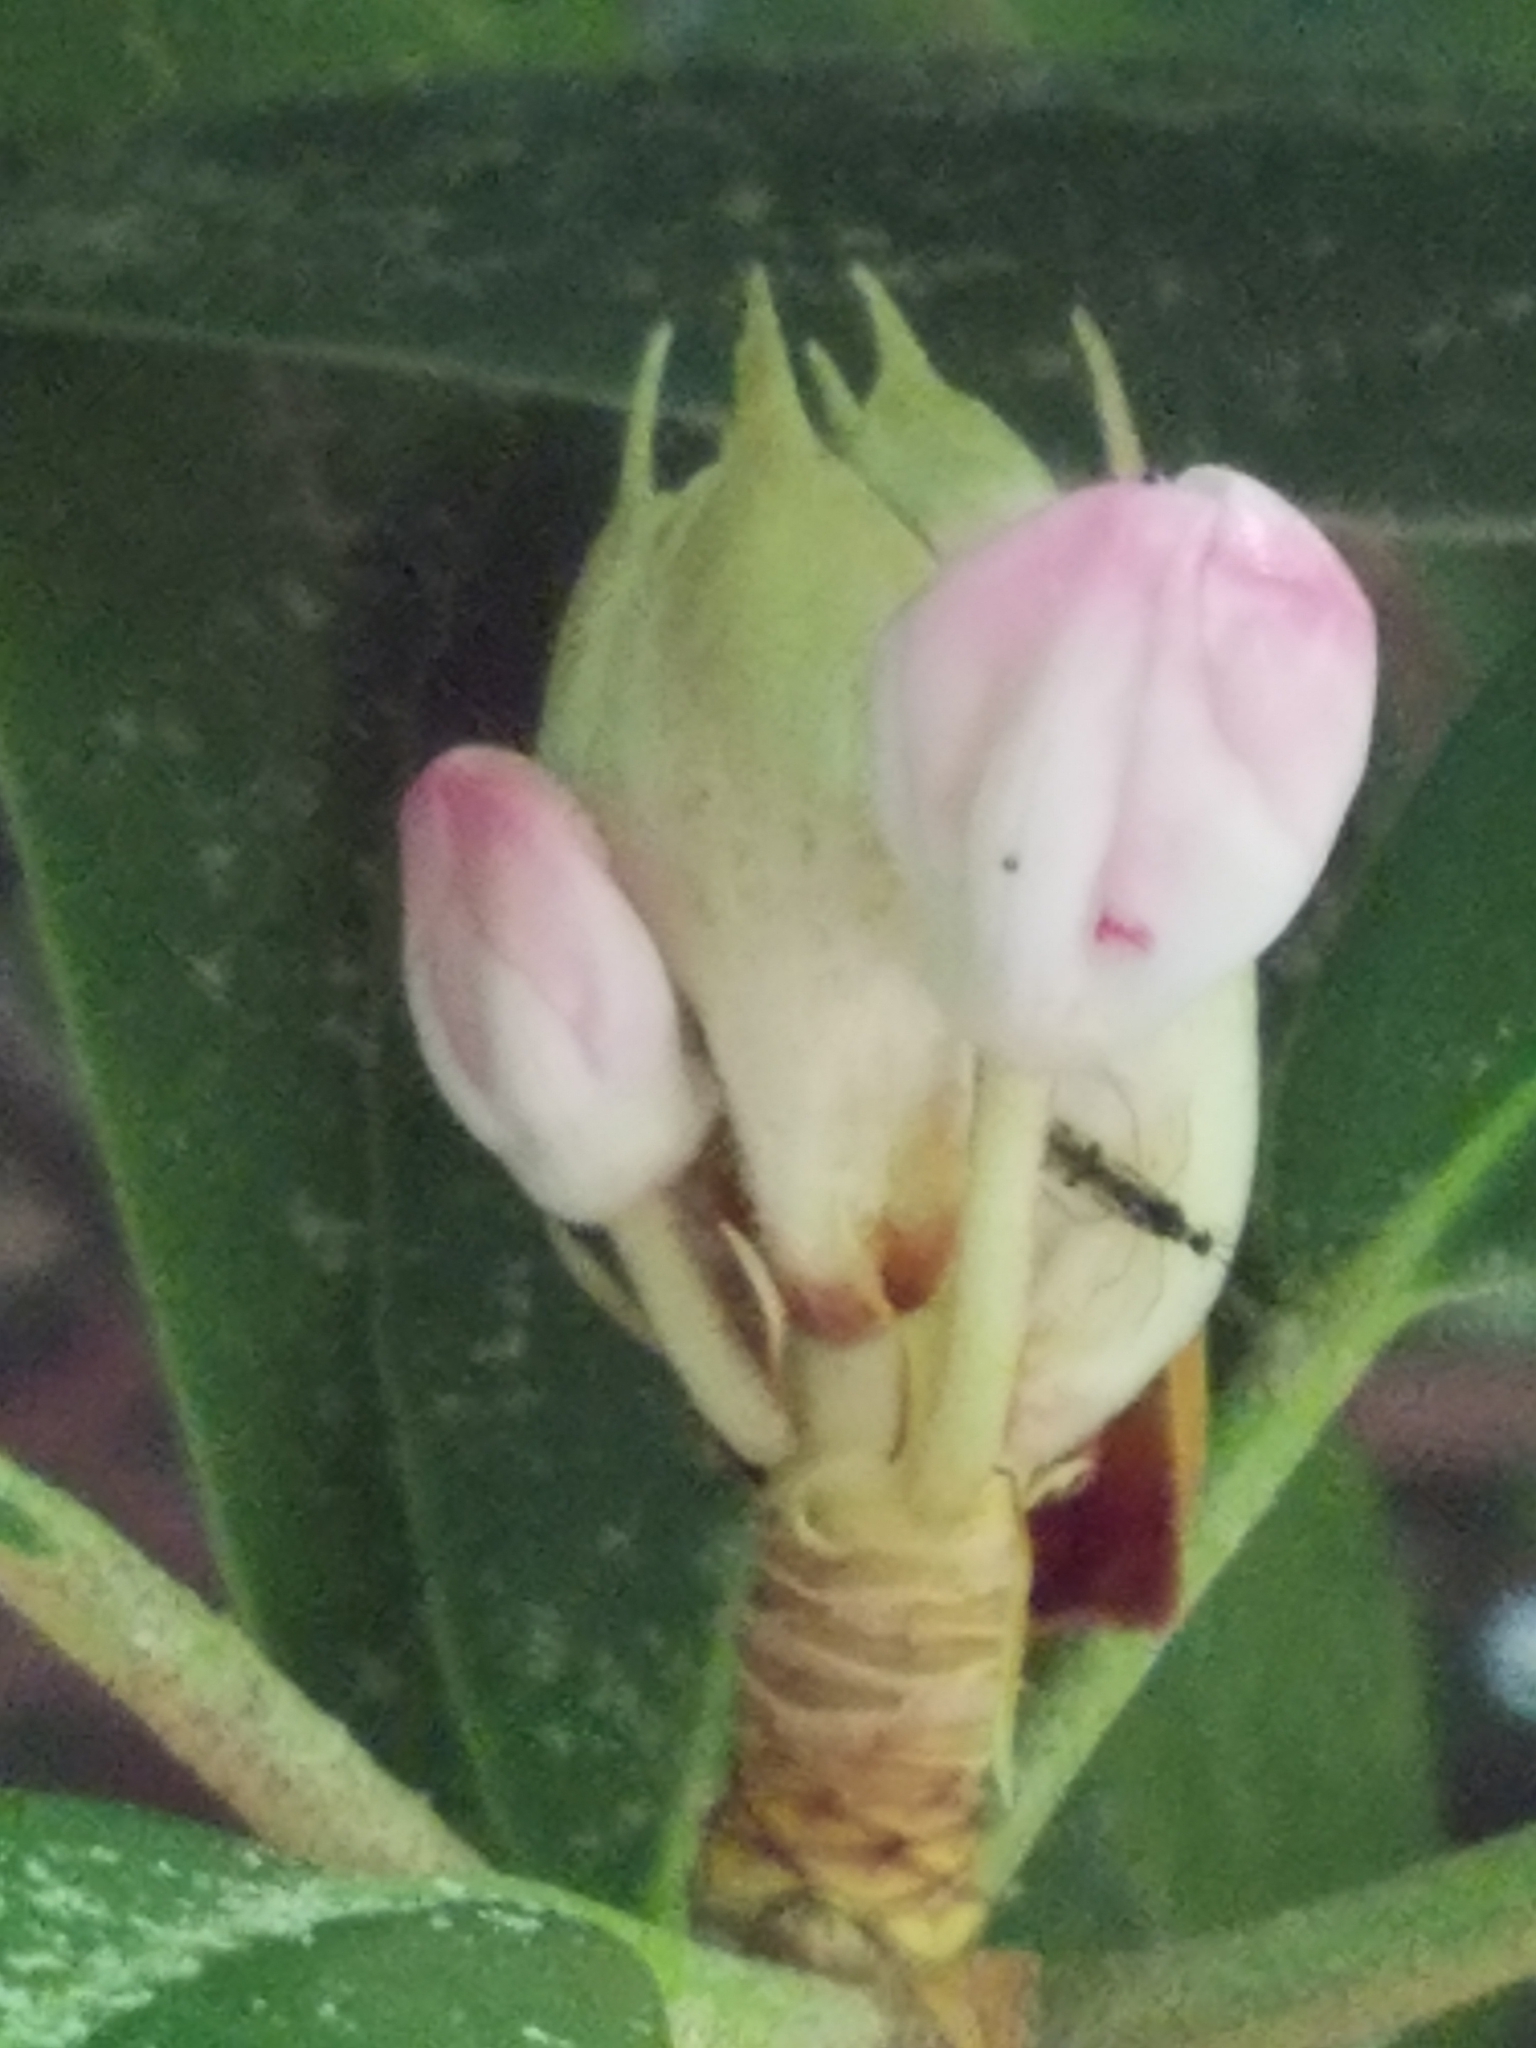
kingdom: Plantae
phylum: Tracheophyta
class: Magnoliopsida
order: Ericales
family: Ericaceae
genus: Rhododendron
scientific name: Rhododendron maximum
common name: Great rhododendron
